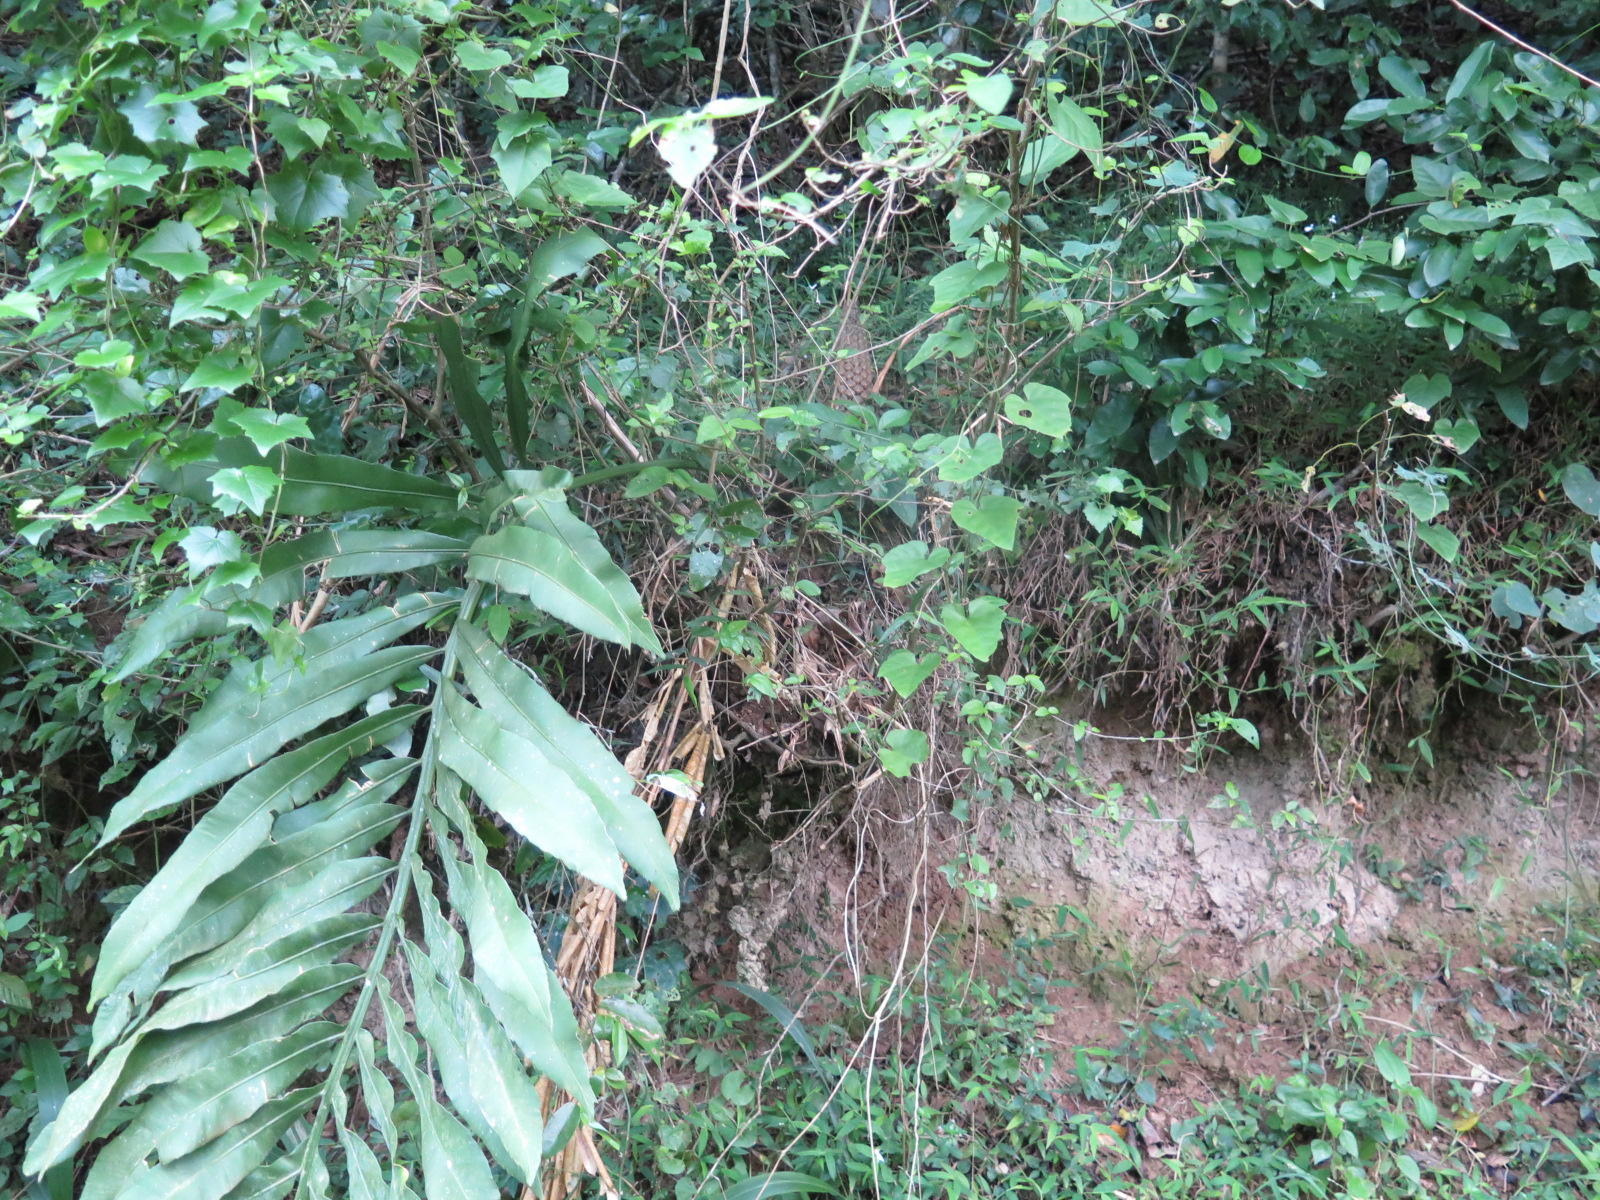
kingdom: Plantae
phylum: Tracheophyta
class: Cycadopsida
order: Cycadales
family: Zamiaceae
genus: Stangeria
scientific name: Stangeria eriopus
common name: Natal grass cycad
